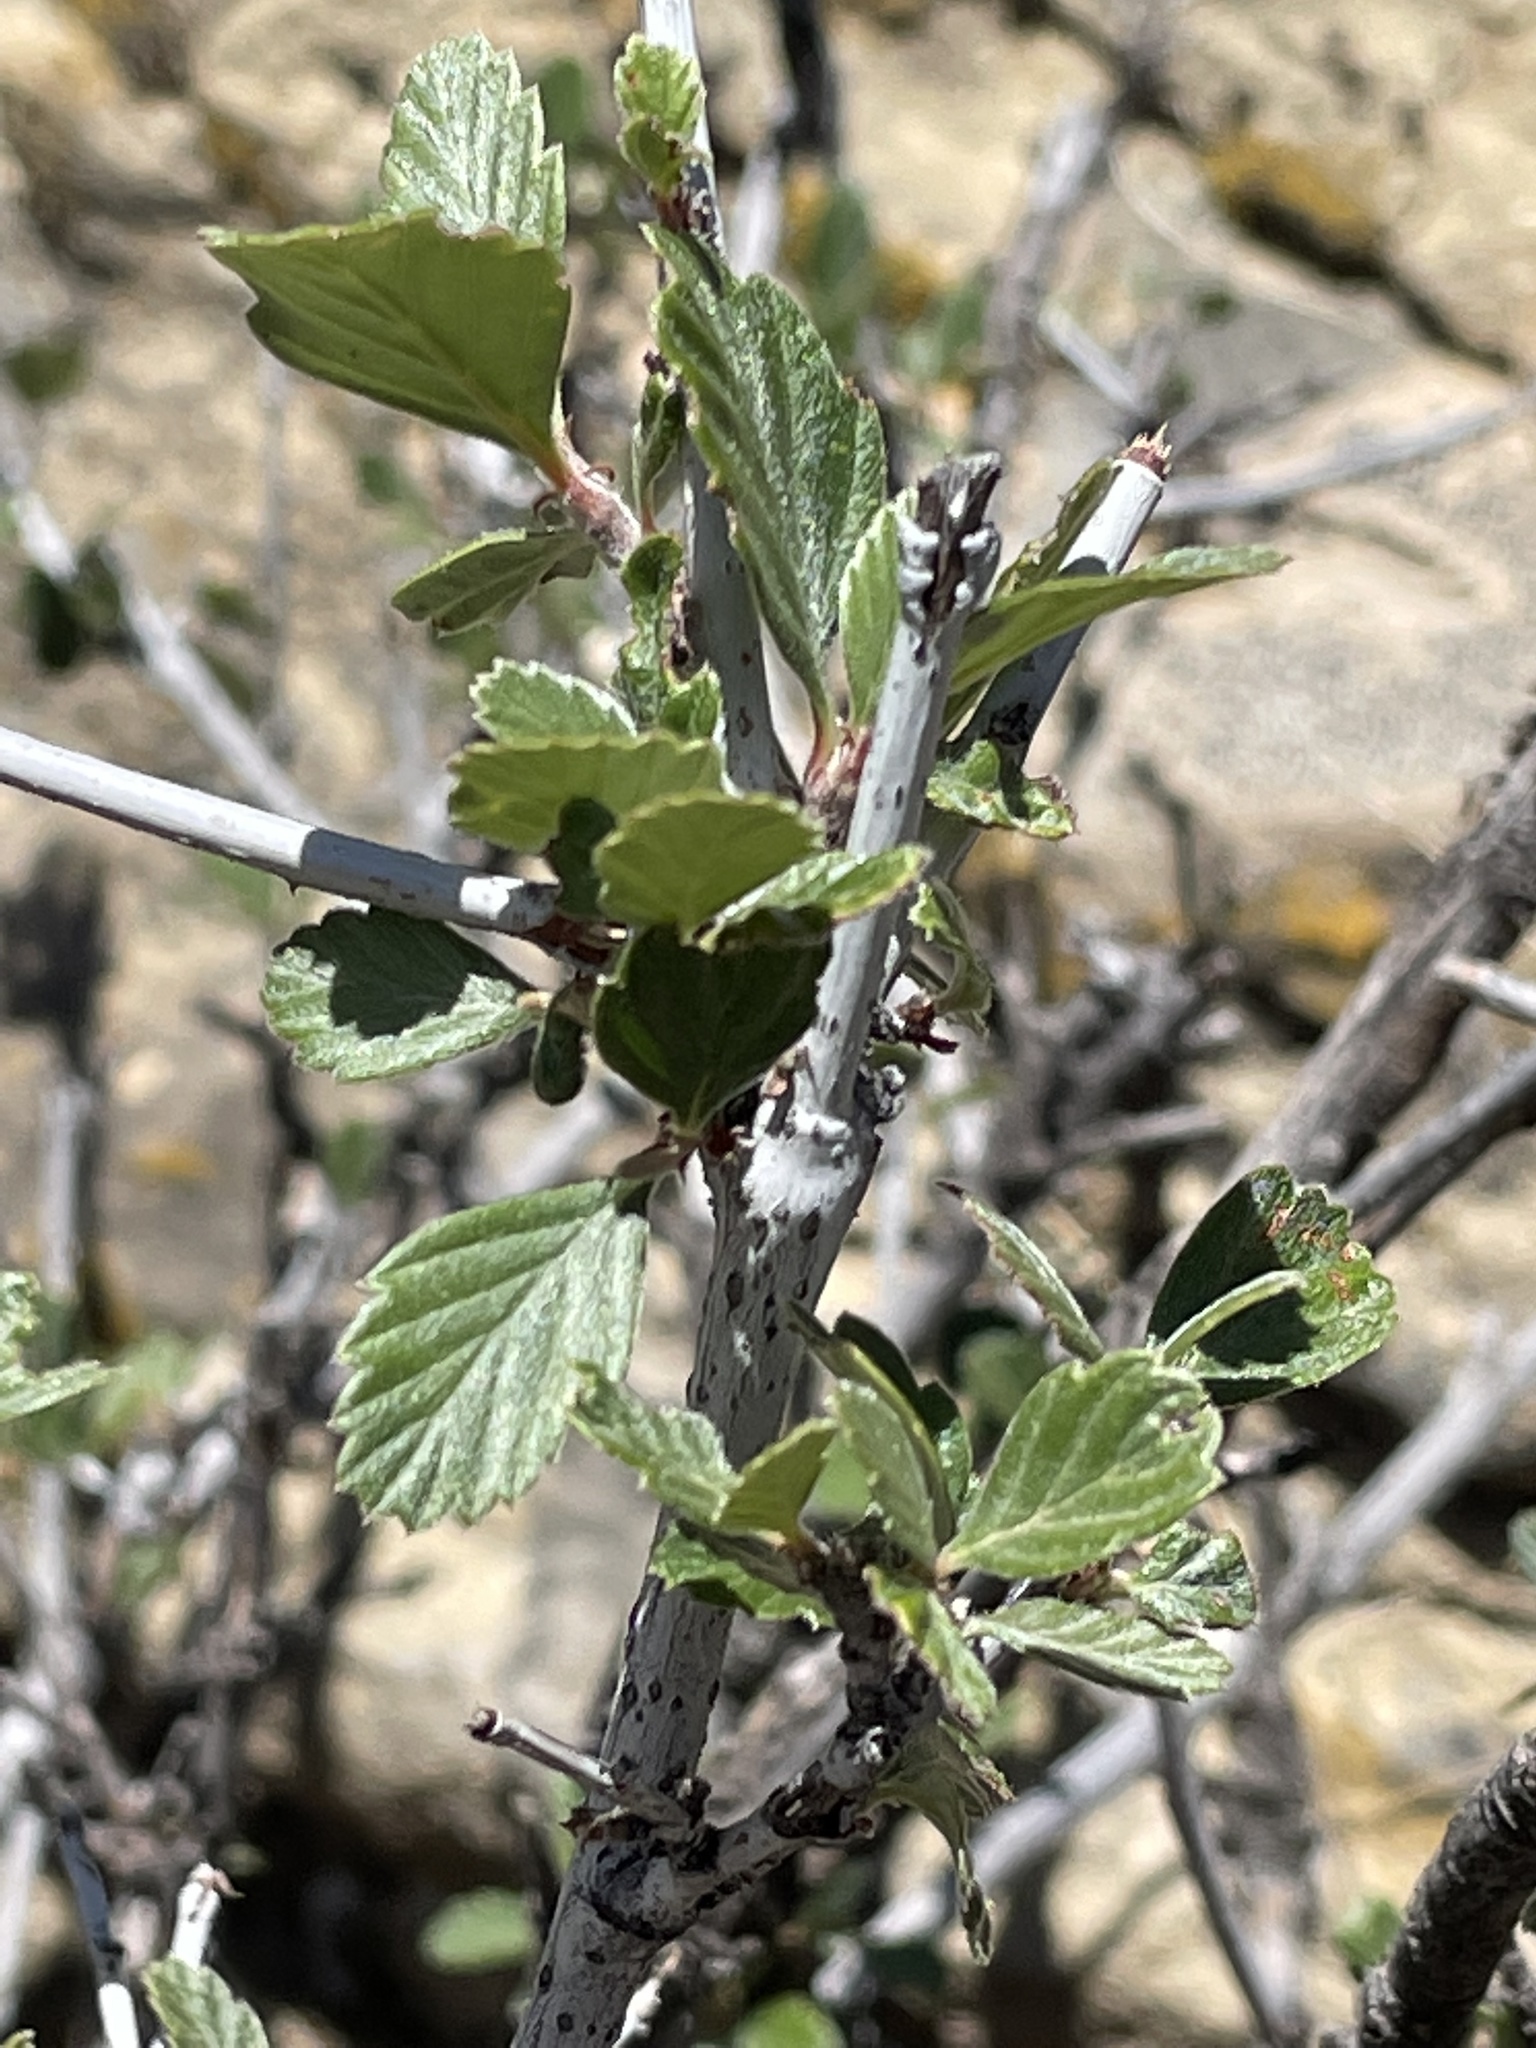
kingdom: Plantae
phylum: Tracheophyta
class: Magnoliopsida
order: Rosales
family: Rosaceae
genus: Cercocarpus
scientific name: Cercocarpus montanus
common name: Alder-leaf cercocarpus
